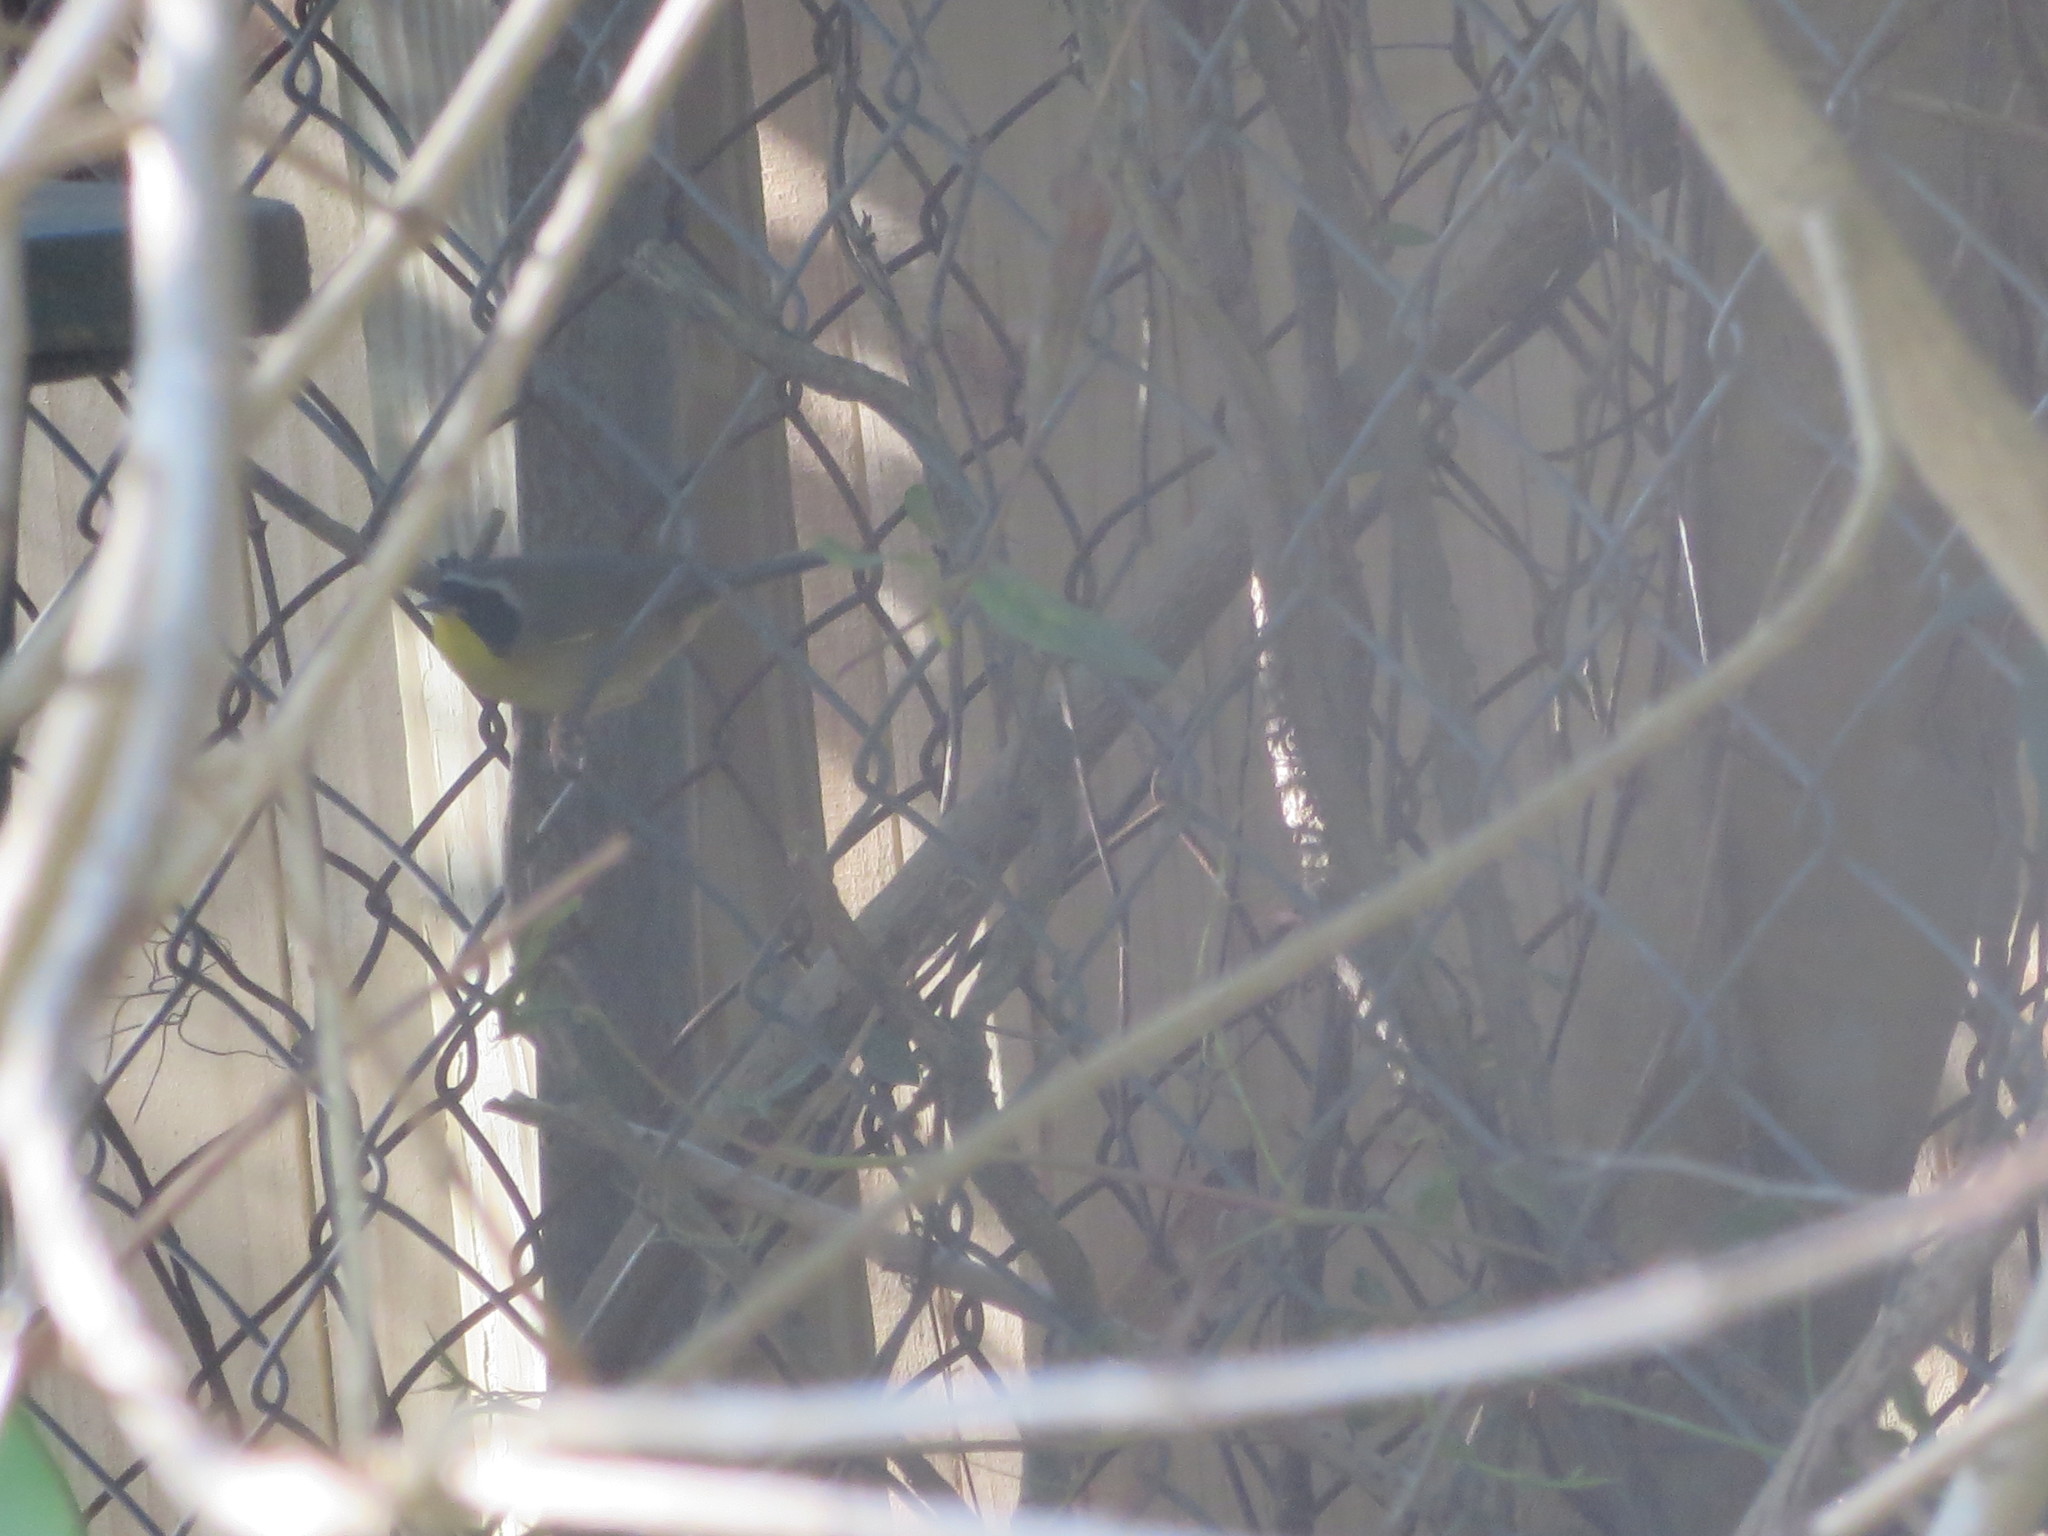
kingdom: Animalia
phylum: Chordata
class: Aves
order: Passeriformes
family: Parulidae
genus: Geothlypis
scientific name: Geothlypis trichas
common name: Common yellowthroat
